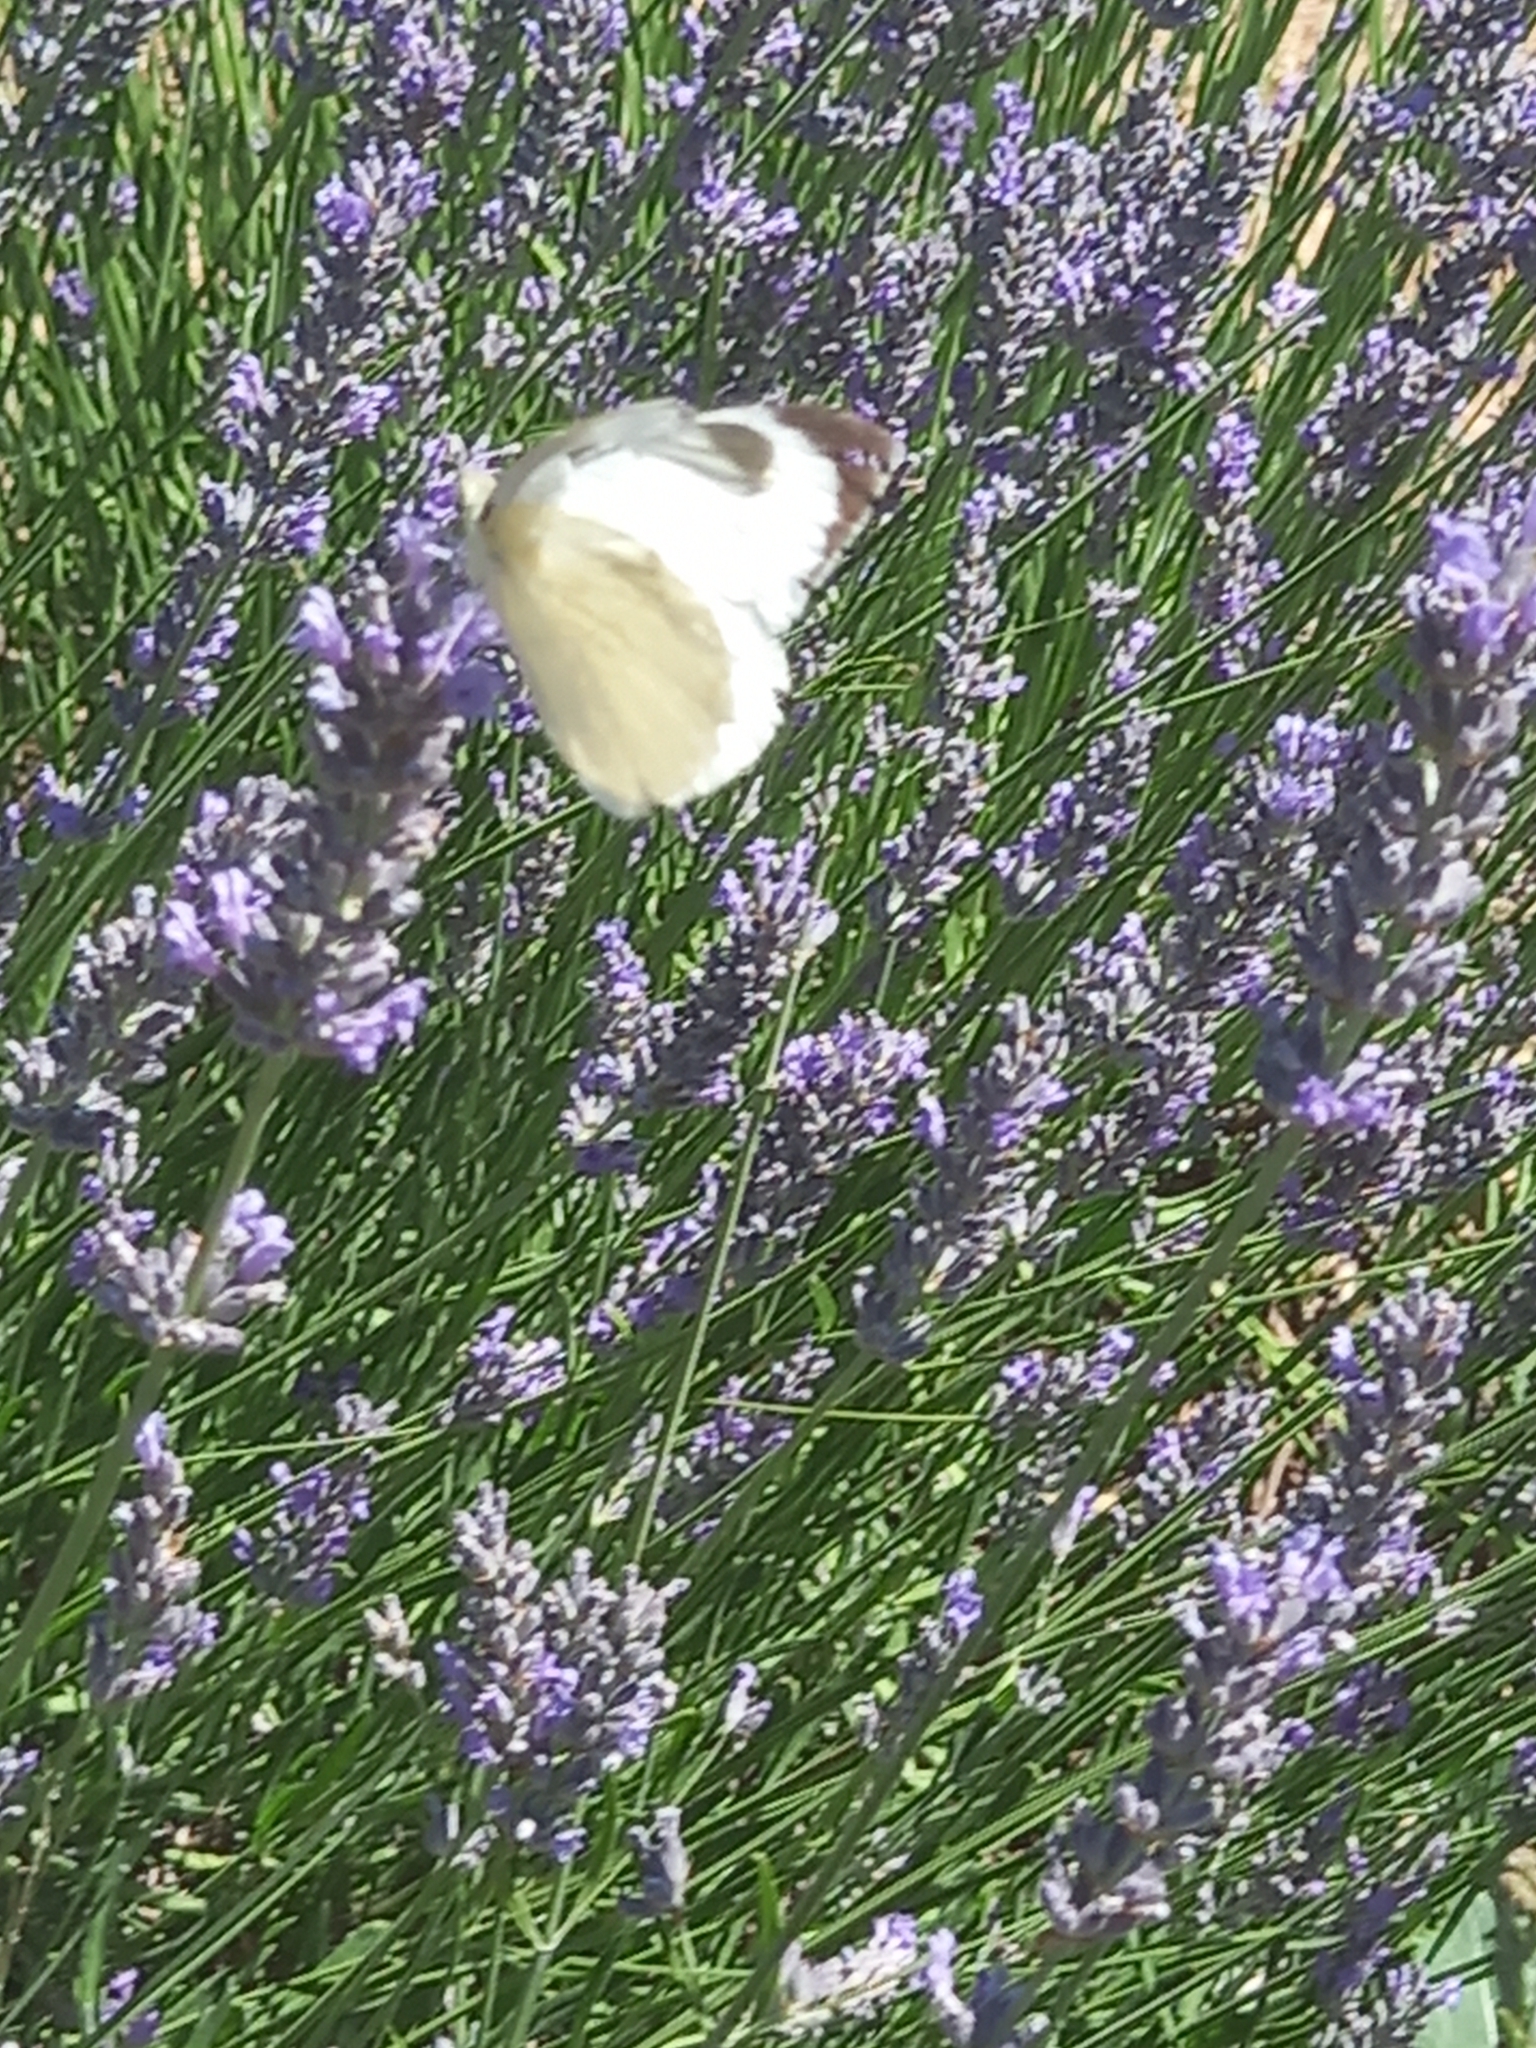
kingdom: Animalia
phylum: Arthropoda
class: Insecta
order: Lepidoptera
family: Pieridae
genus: Pieris
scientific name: Pieris brassicae
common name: Large white
